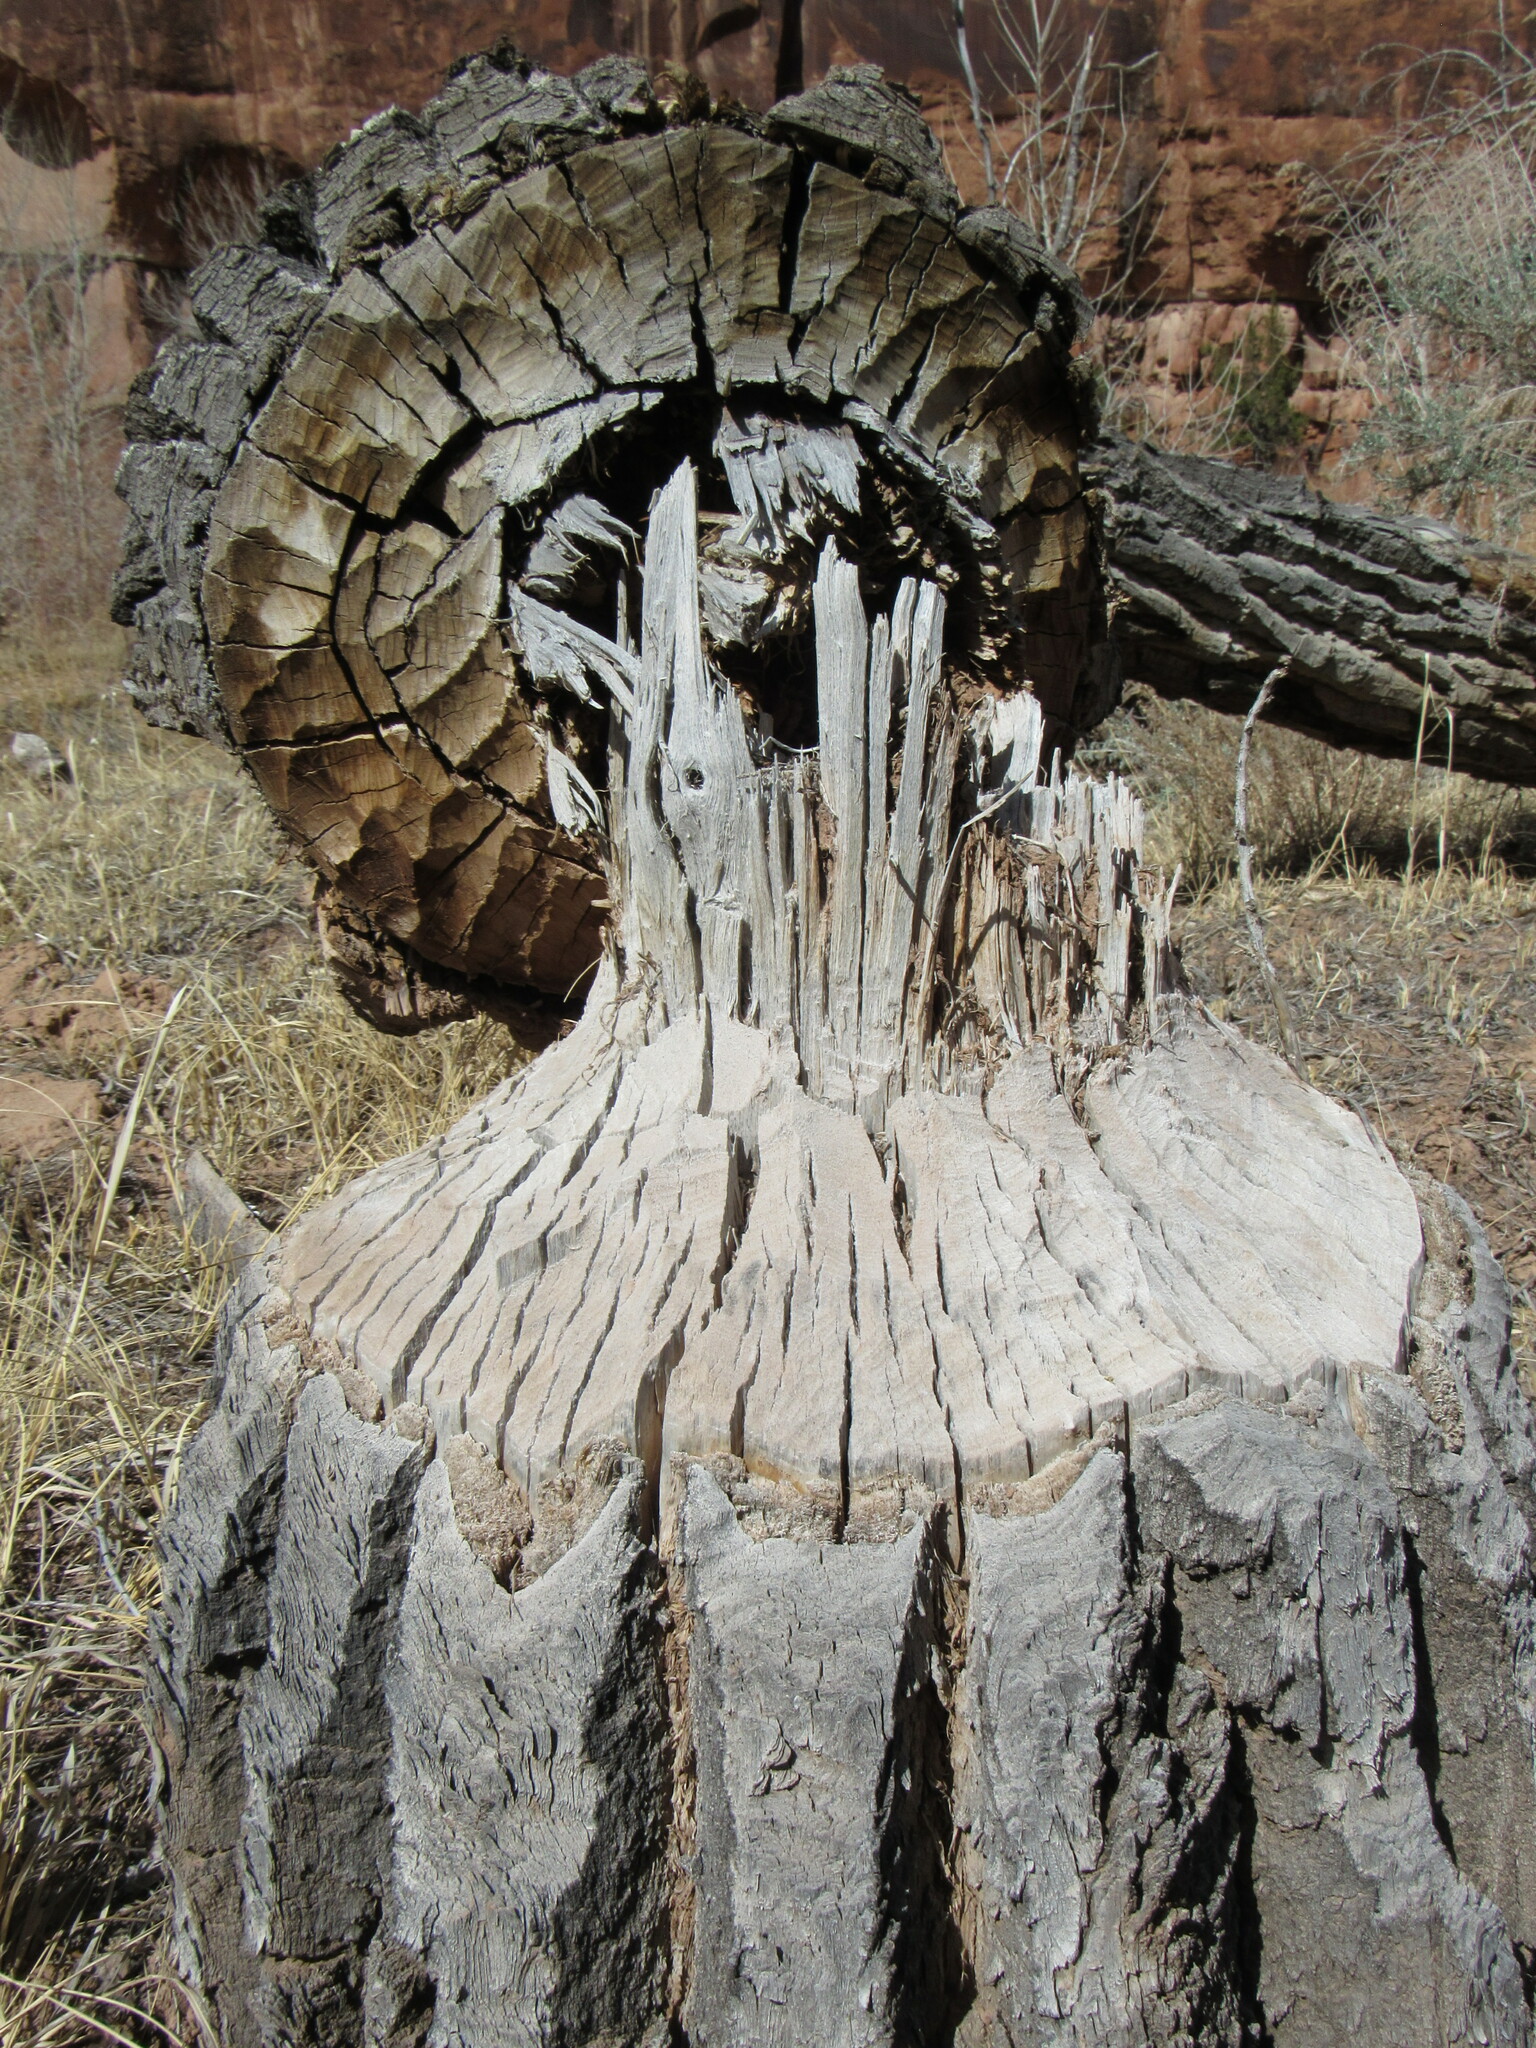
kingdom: Animalia
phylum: Chordata
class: Mammalia
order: Rodentia
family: Castoridae
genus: Castor
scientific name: Castor canadensis
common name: American beaver
